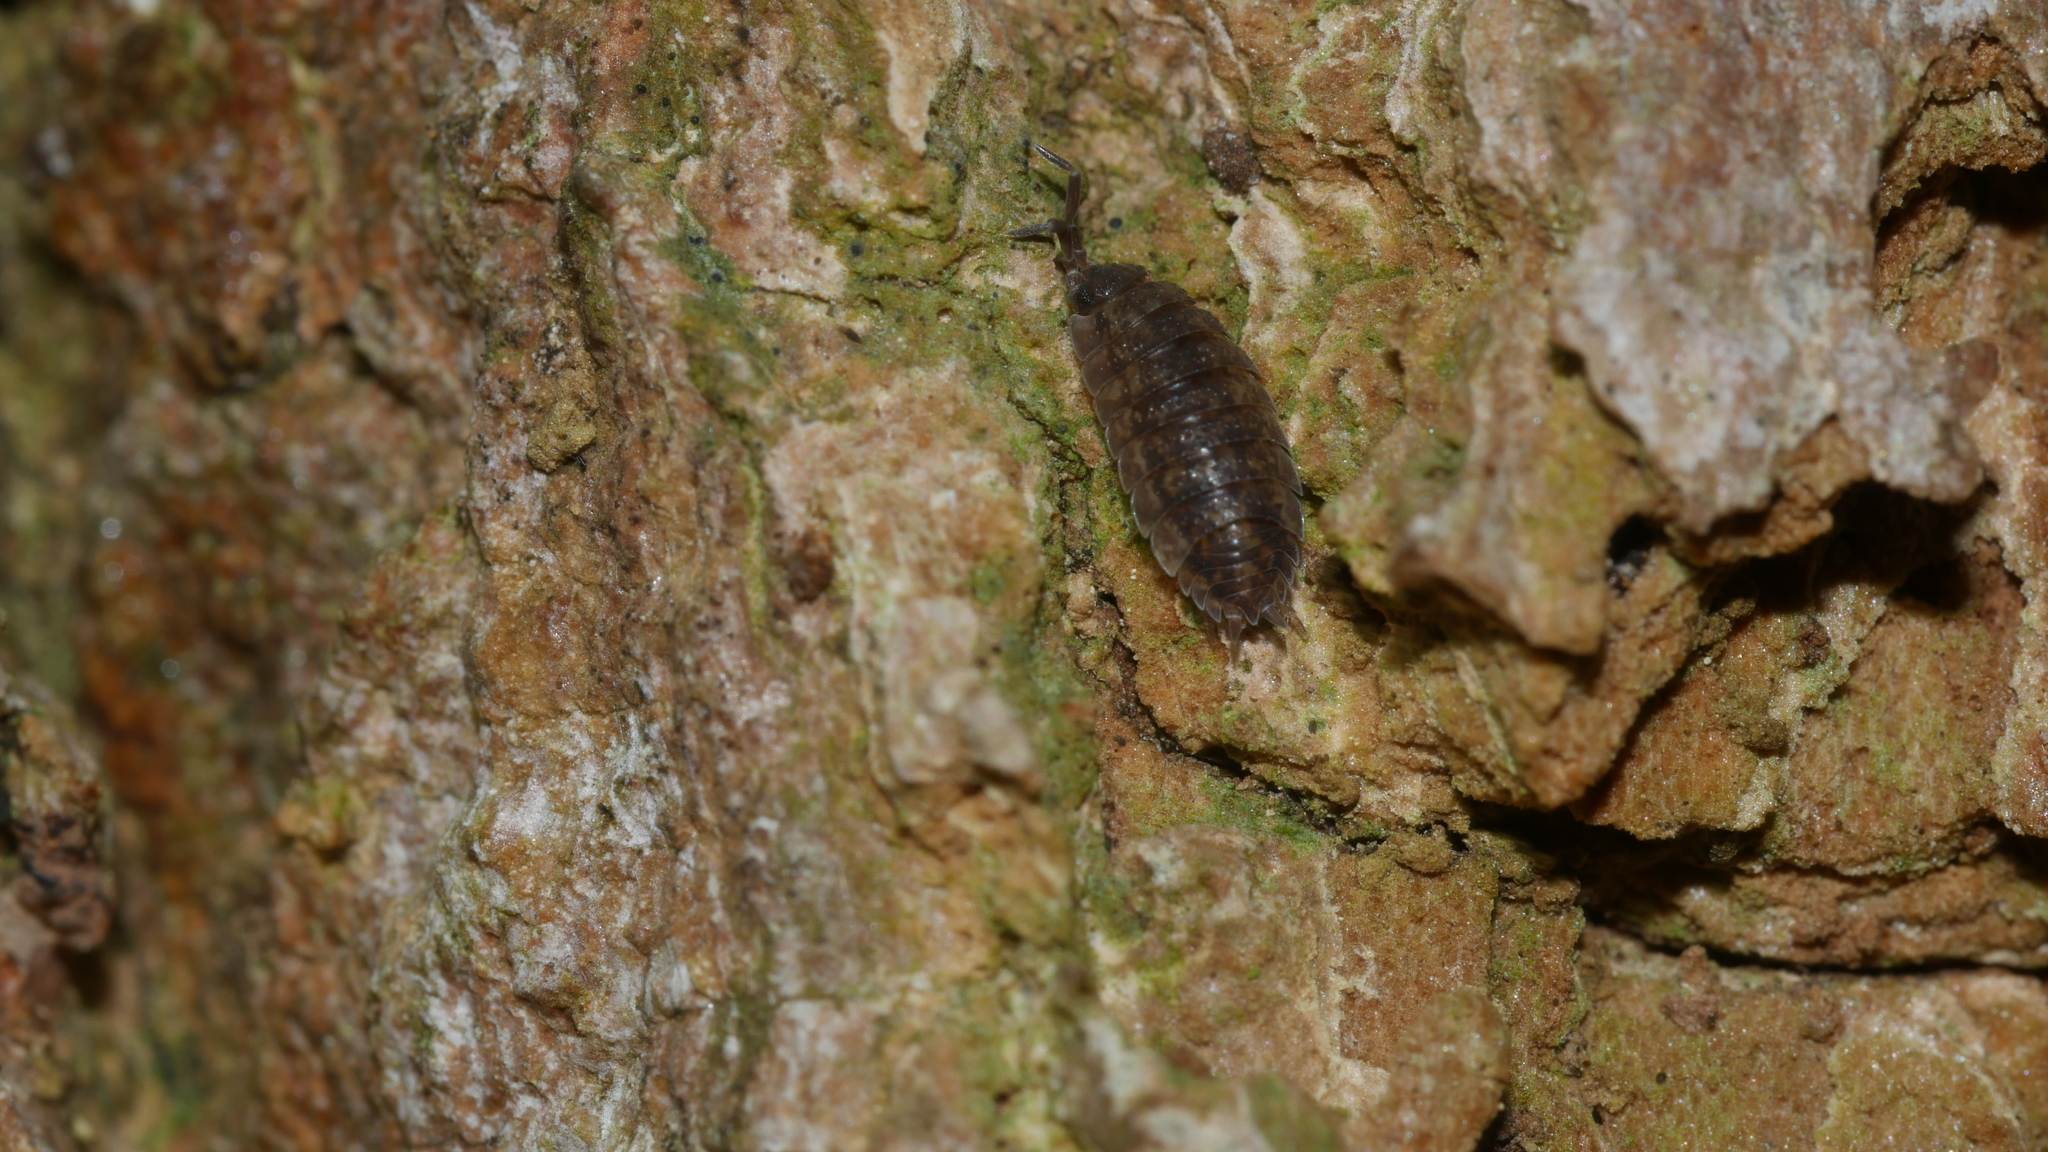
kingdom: Animalia
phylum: Arthropoda
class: Malacostraca
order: Isopoda
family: Porcellionidae
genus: Porcellio
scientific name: Porcellio scaber
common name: Common rough woodlouse
